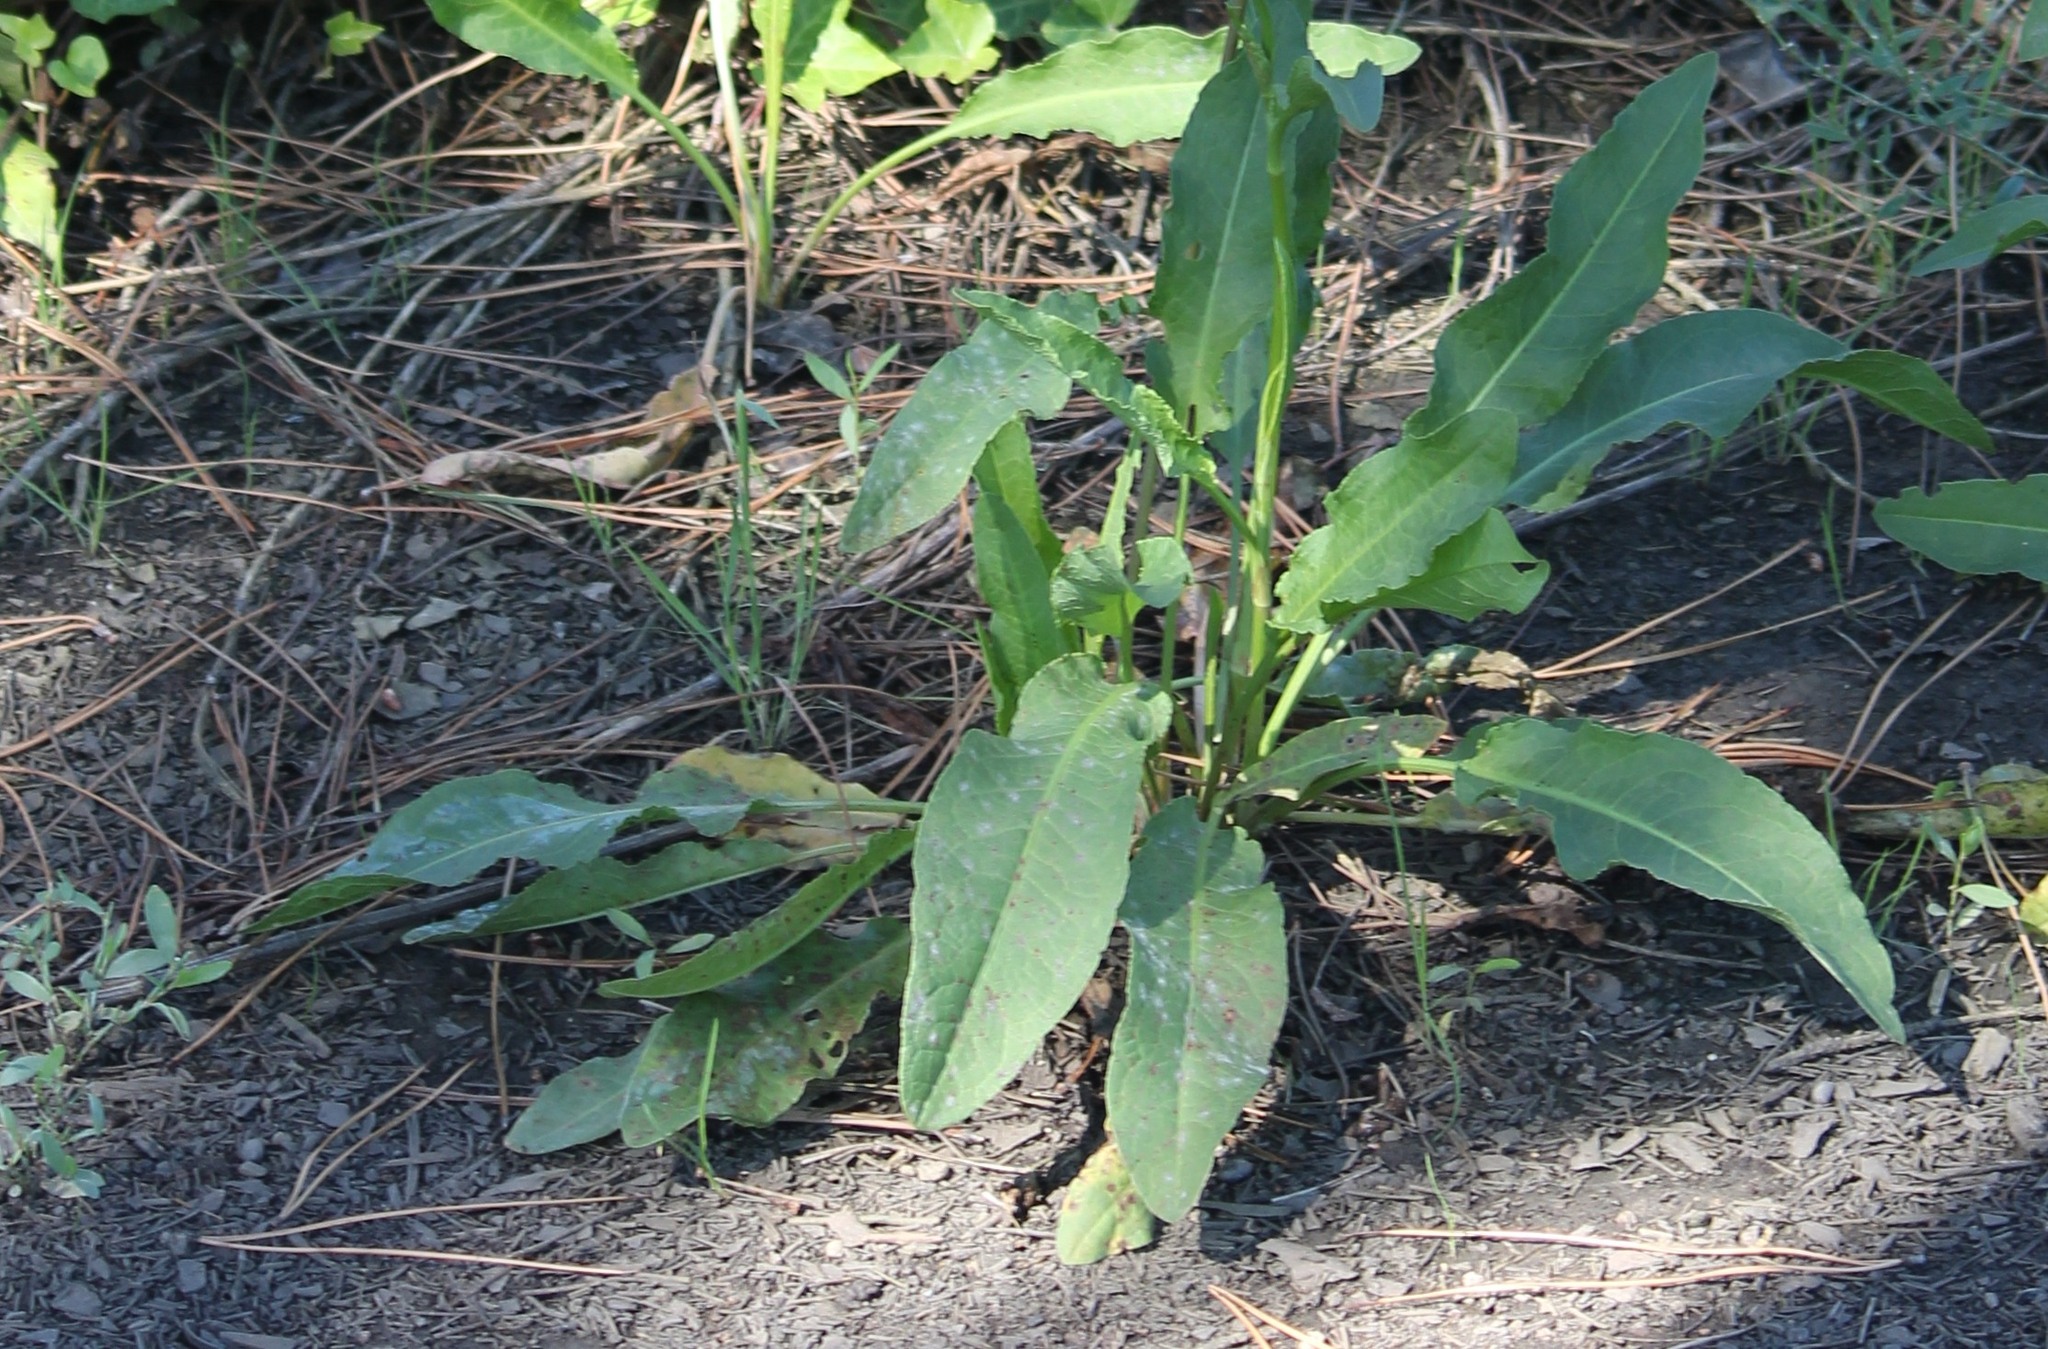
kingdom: Plantae
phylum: Tracheophyta
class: Magnoliopsida
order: Caryophyllales
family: Polygonaceae
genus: Rumex
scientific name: Rumex crispus
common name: Curled dock
